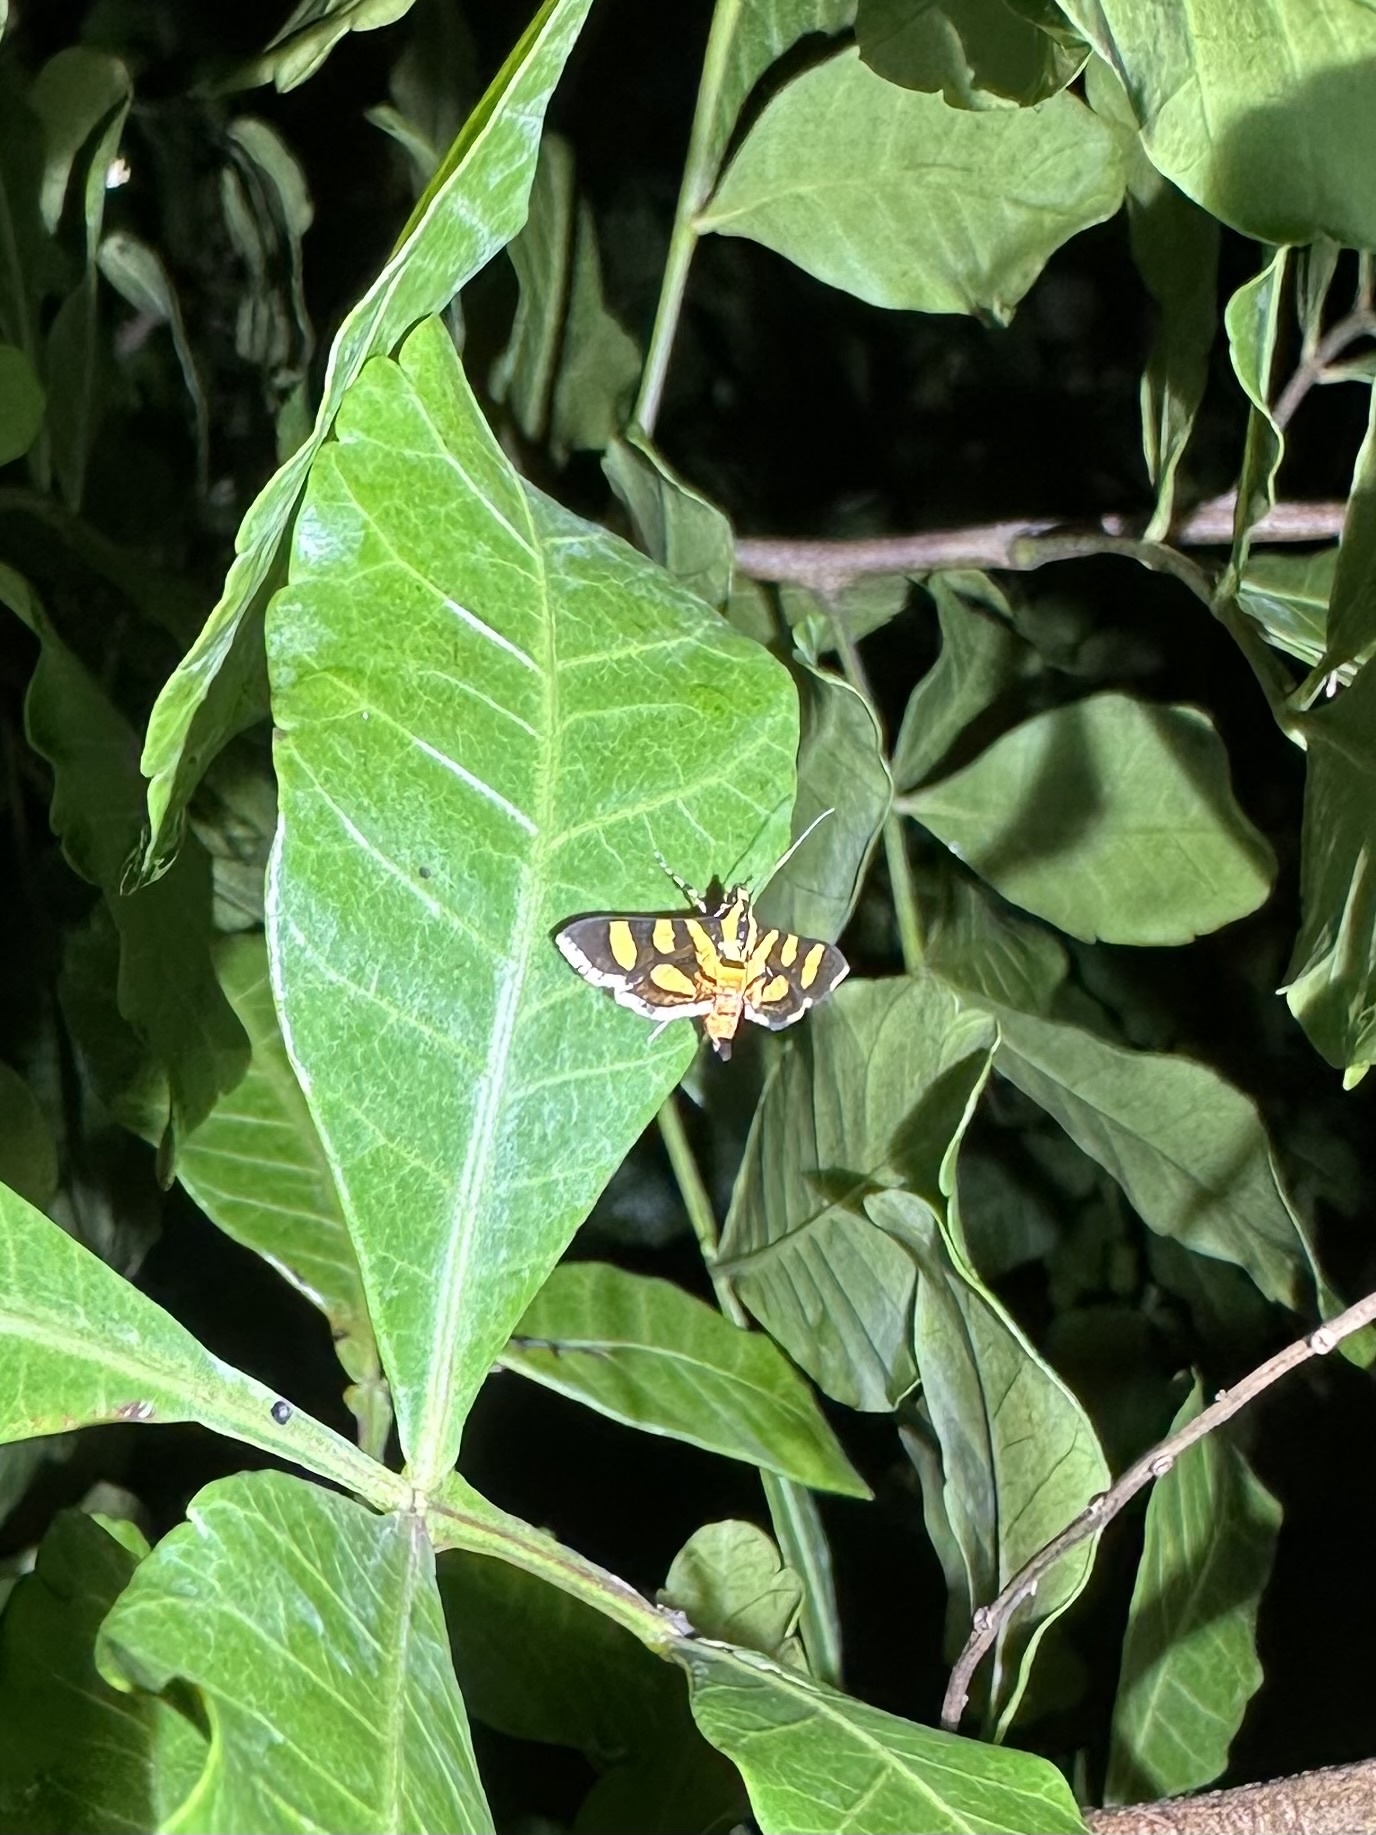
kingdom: Animalia
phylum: Arthropoda
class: Insecta
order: Lepidoptera
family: Crambidae
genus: Syngamia
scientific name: Syngamia florella
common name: Orange-spotted flower moth
